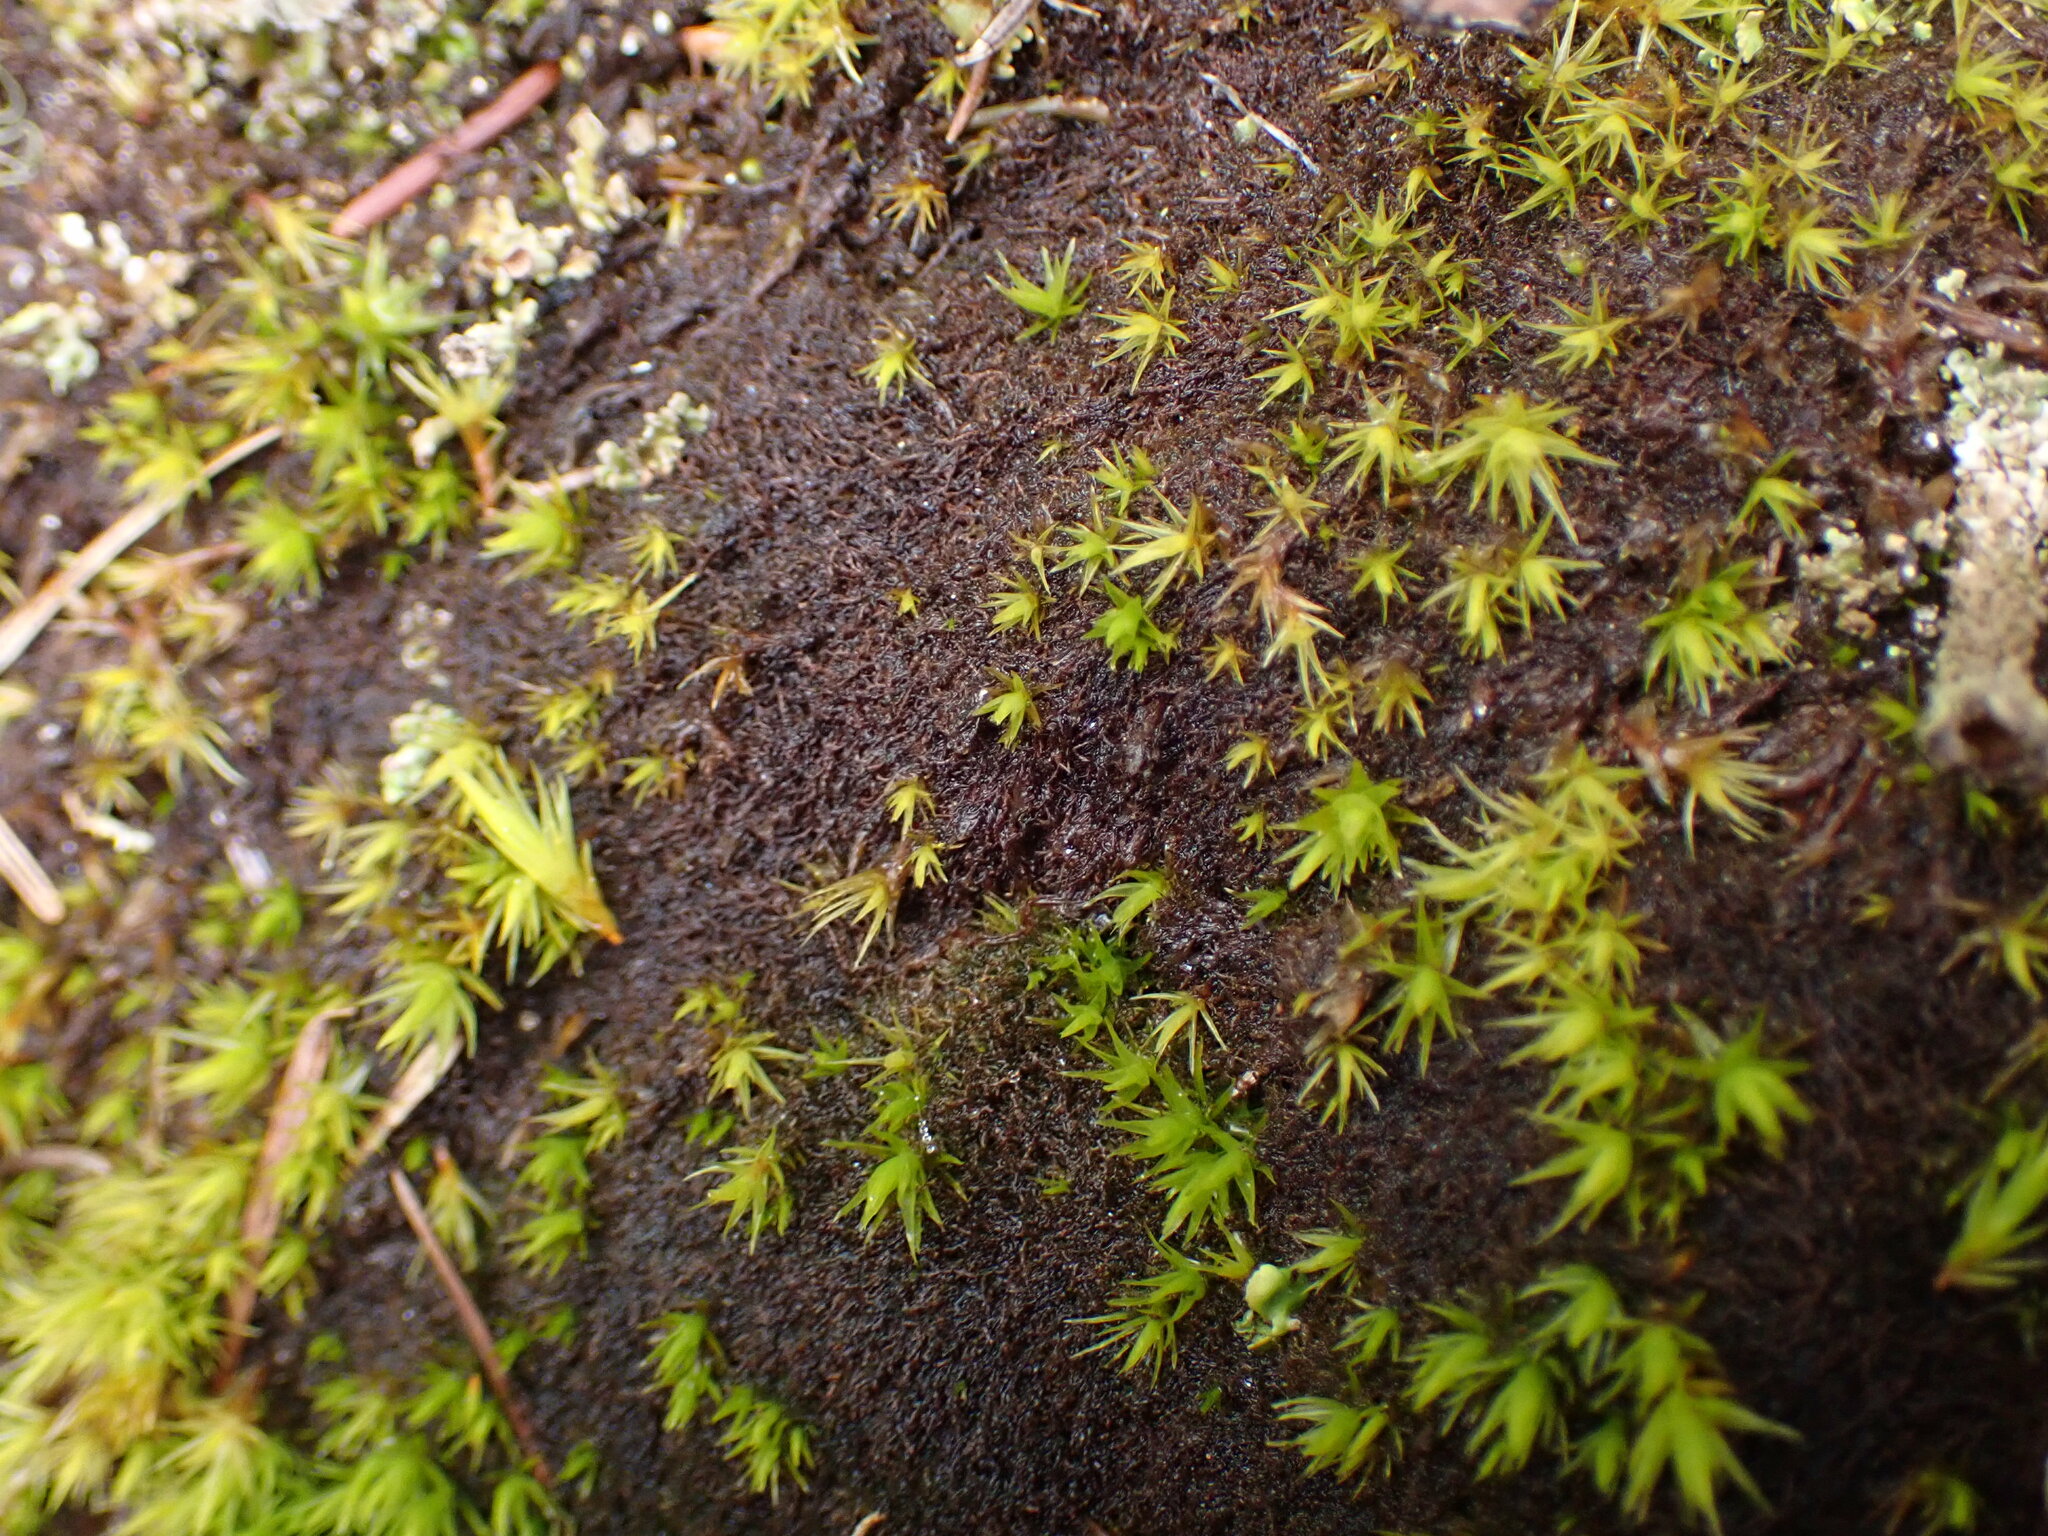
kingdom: Plantae
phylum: Marchantiophyta
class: Jungermanniopsida
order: Jungermanniales
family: Cephaloziellaceae
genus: Cephaloziella
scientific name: Cephaloziella divaricata
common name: Spreading threadwort
